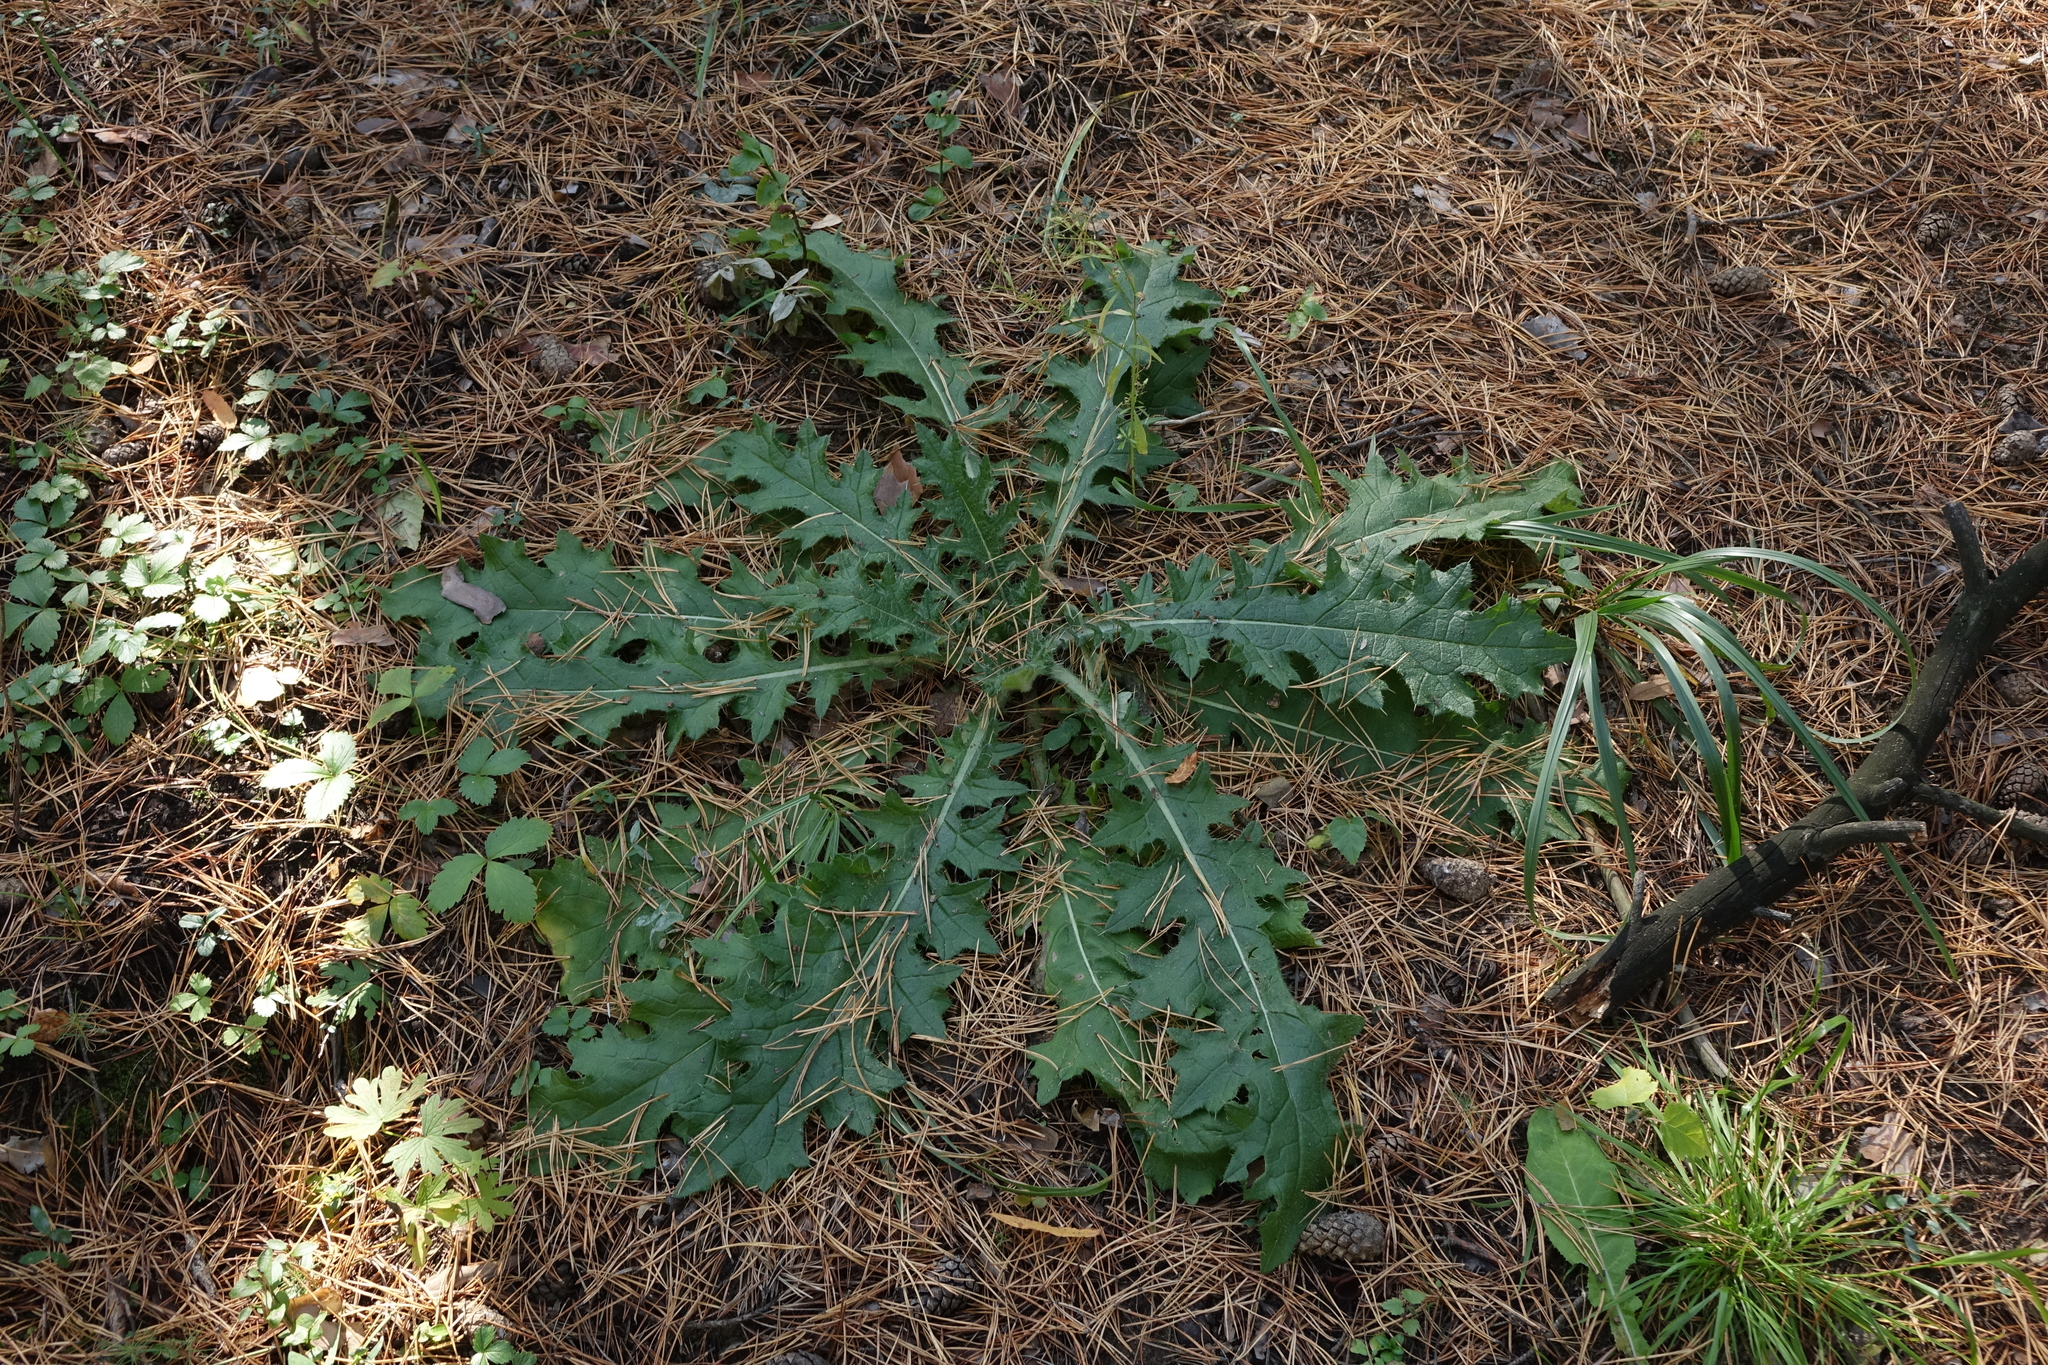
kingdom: Plantae
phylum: Tracheophyta
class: Magnoliopsida
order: Asterales
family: Asteraceae
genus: Cirsium
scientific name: Cirsium vulgare
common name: Bull thistle
